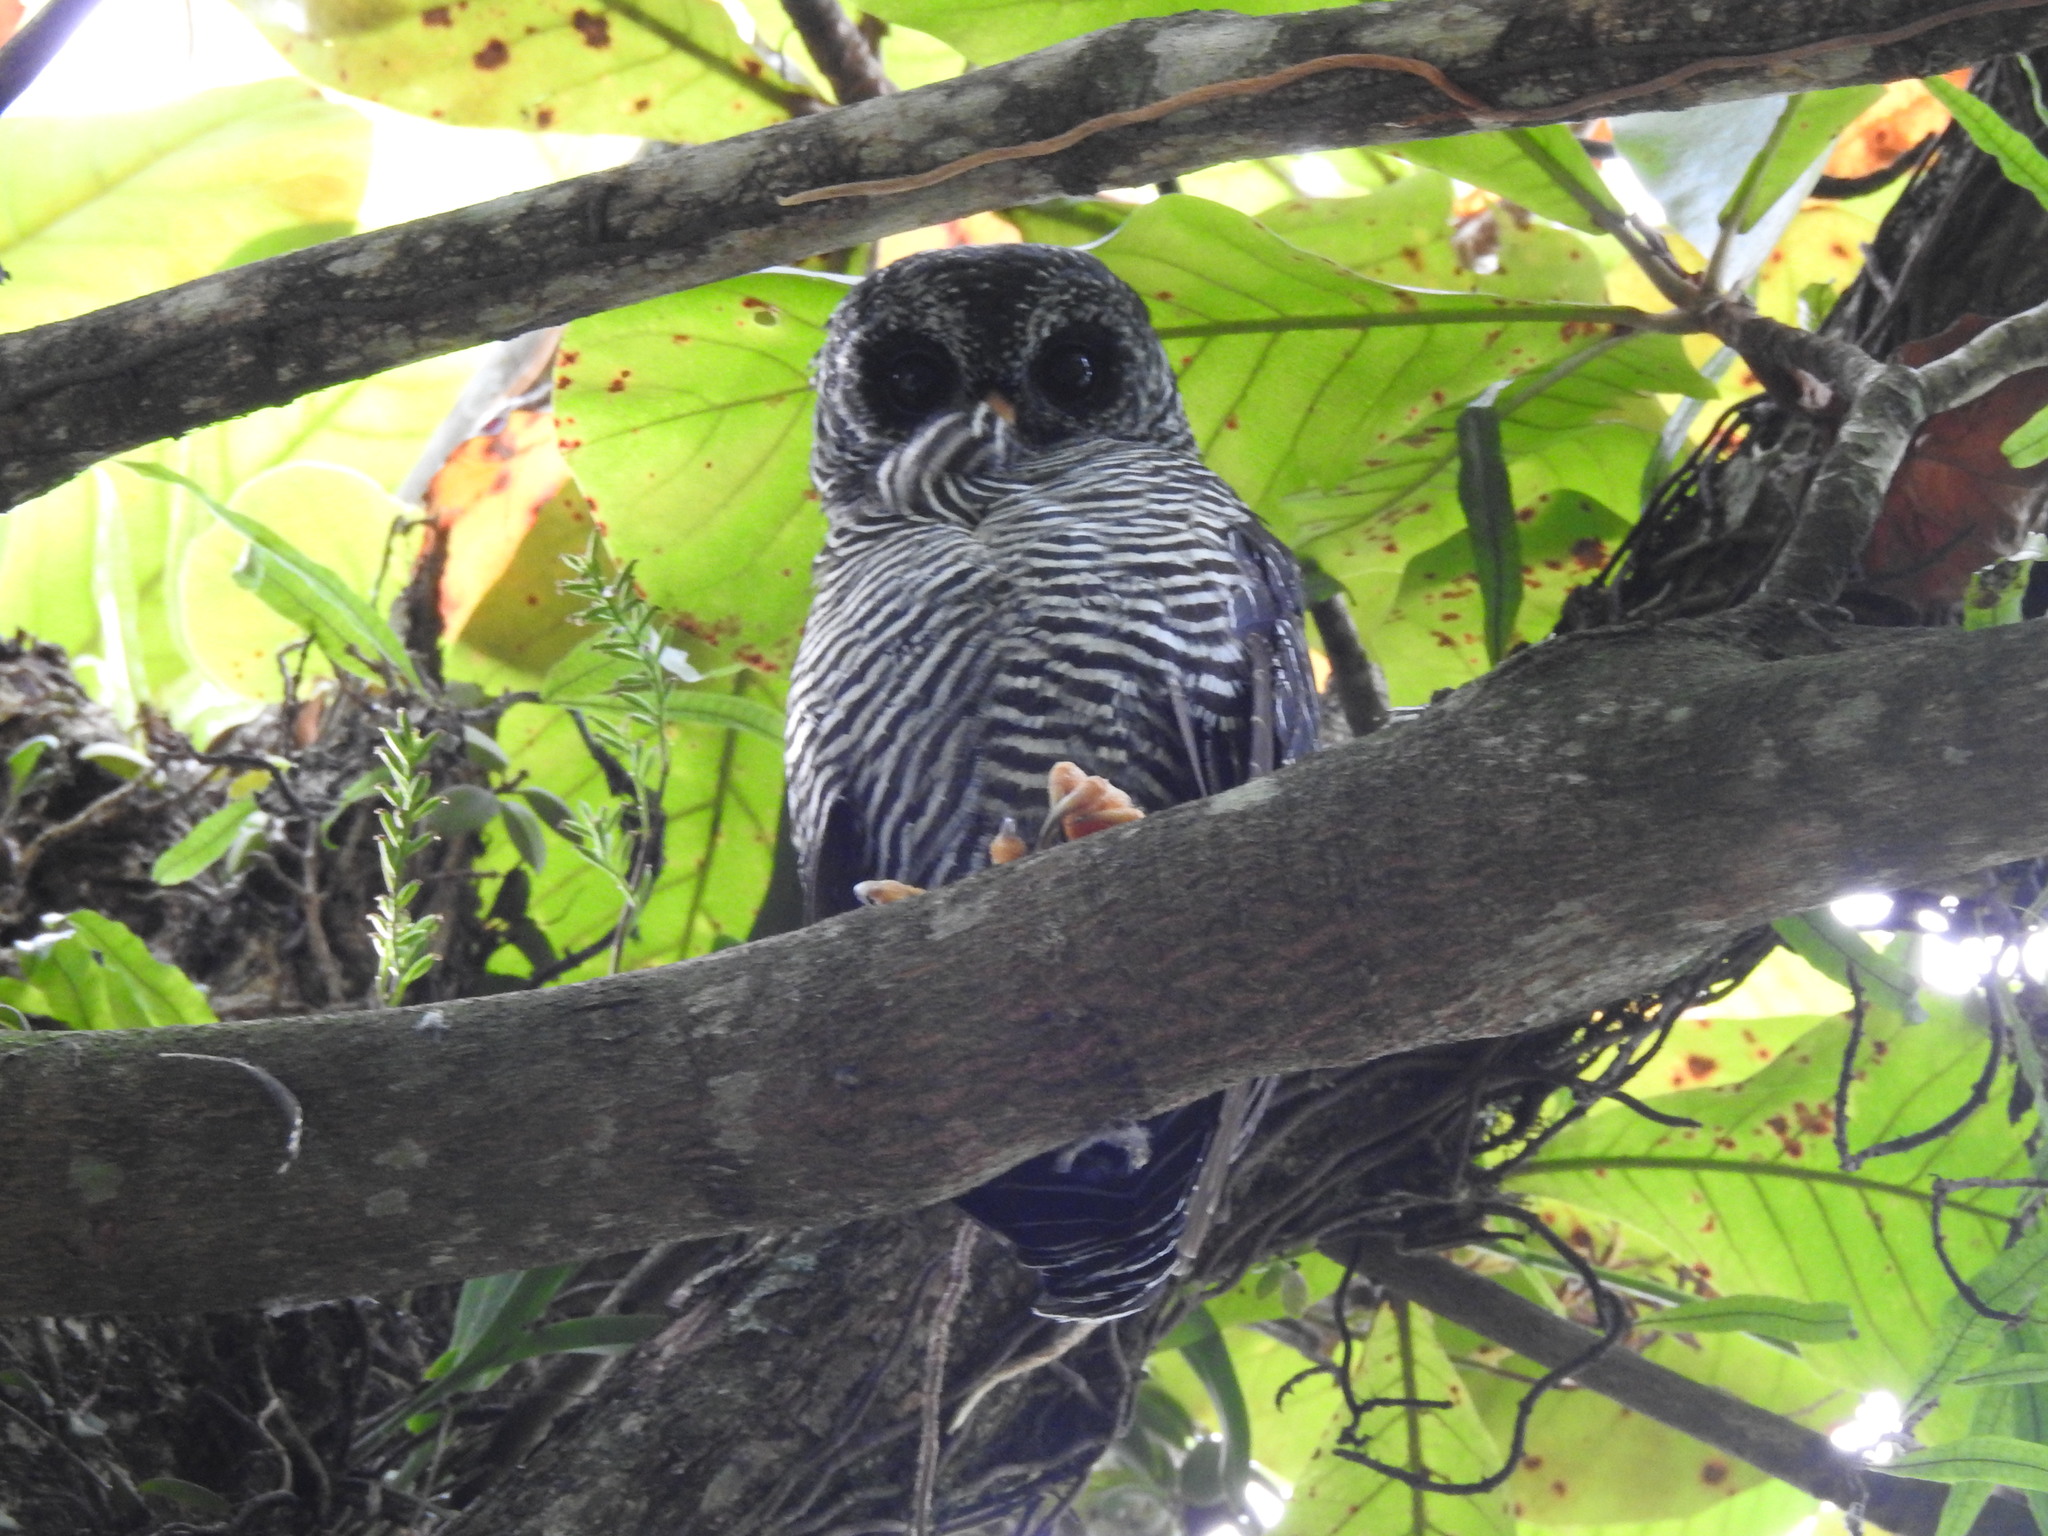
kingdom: Animalia
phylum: Chordata
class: Aves
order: Strigiformes
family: Strigidae
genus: Strix
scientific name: Strix huhula
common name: Black-banded owl
